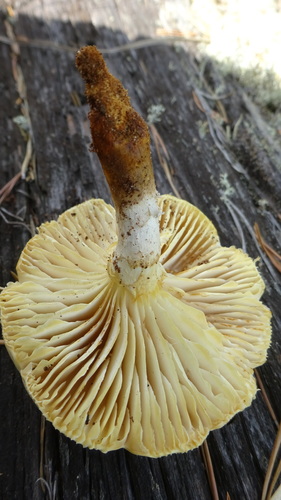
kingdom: Fungi
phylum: Basidiomycota
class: Agaricomycetes
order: Gloeophyllales
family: Gloeophyllaceae
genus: Neolentinus
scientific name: Neolentinus lepideus
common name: Scaly sawgill
